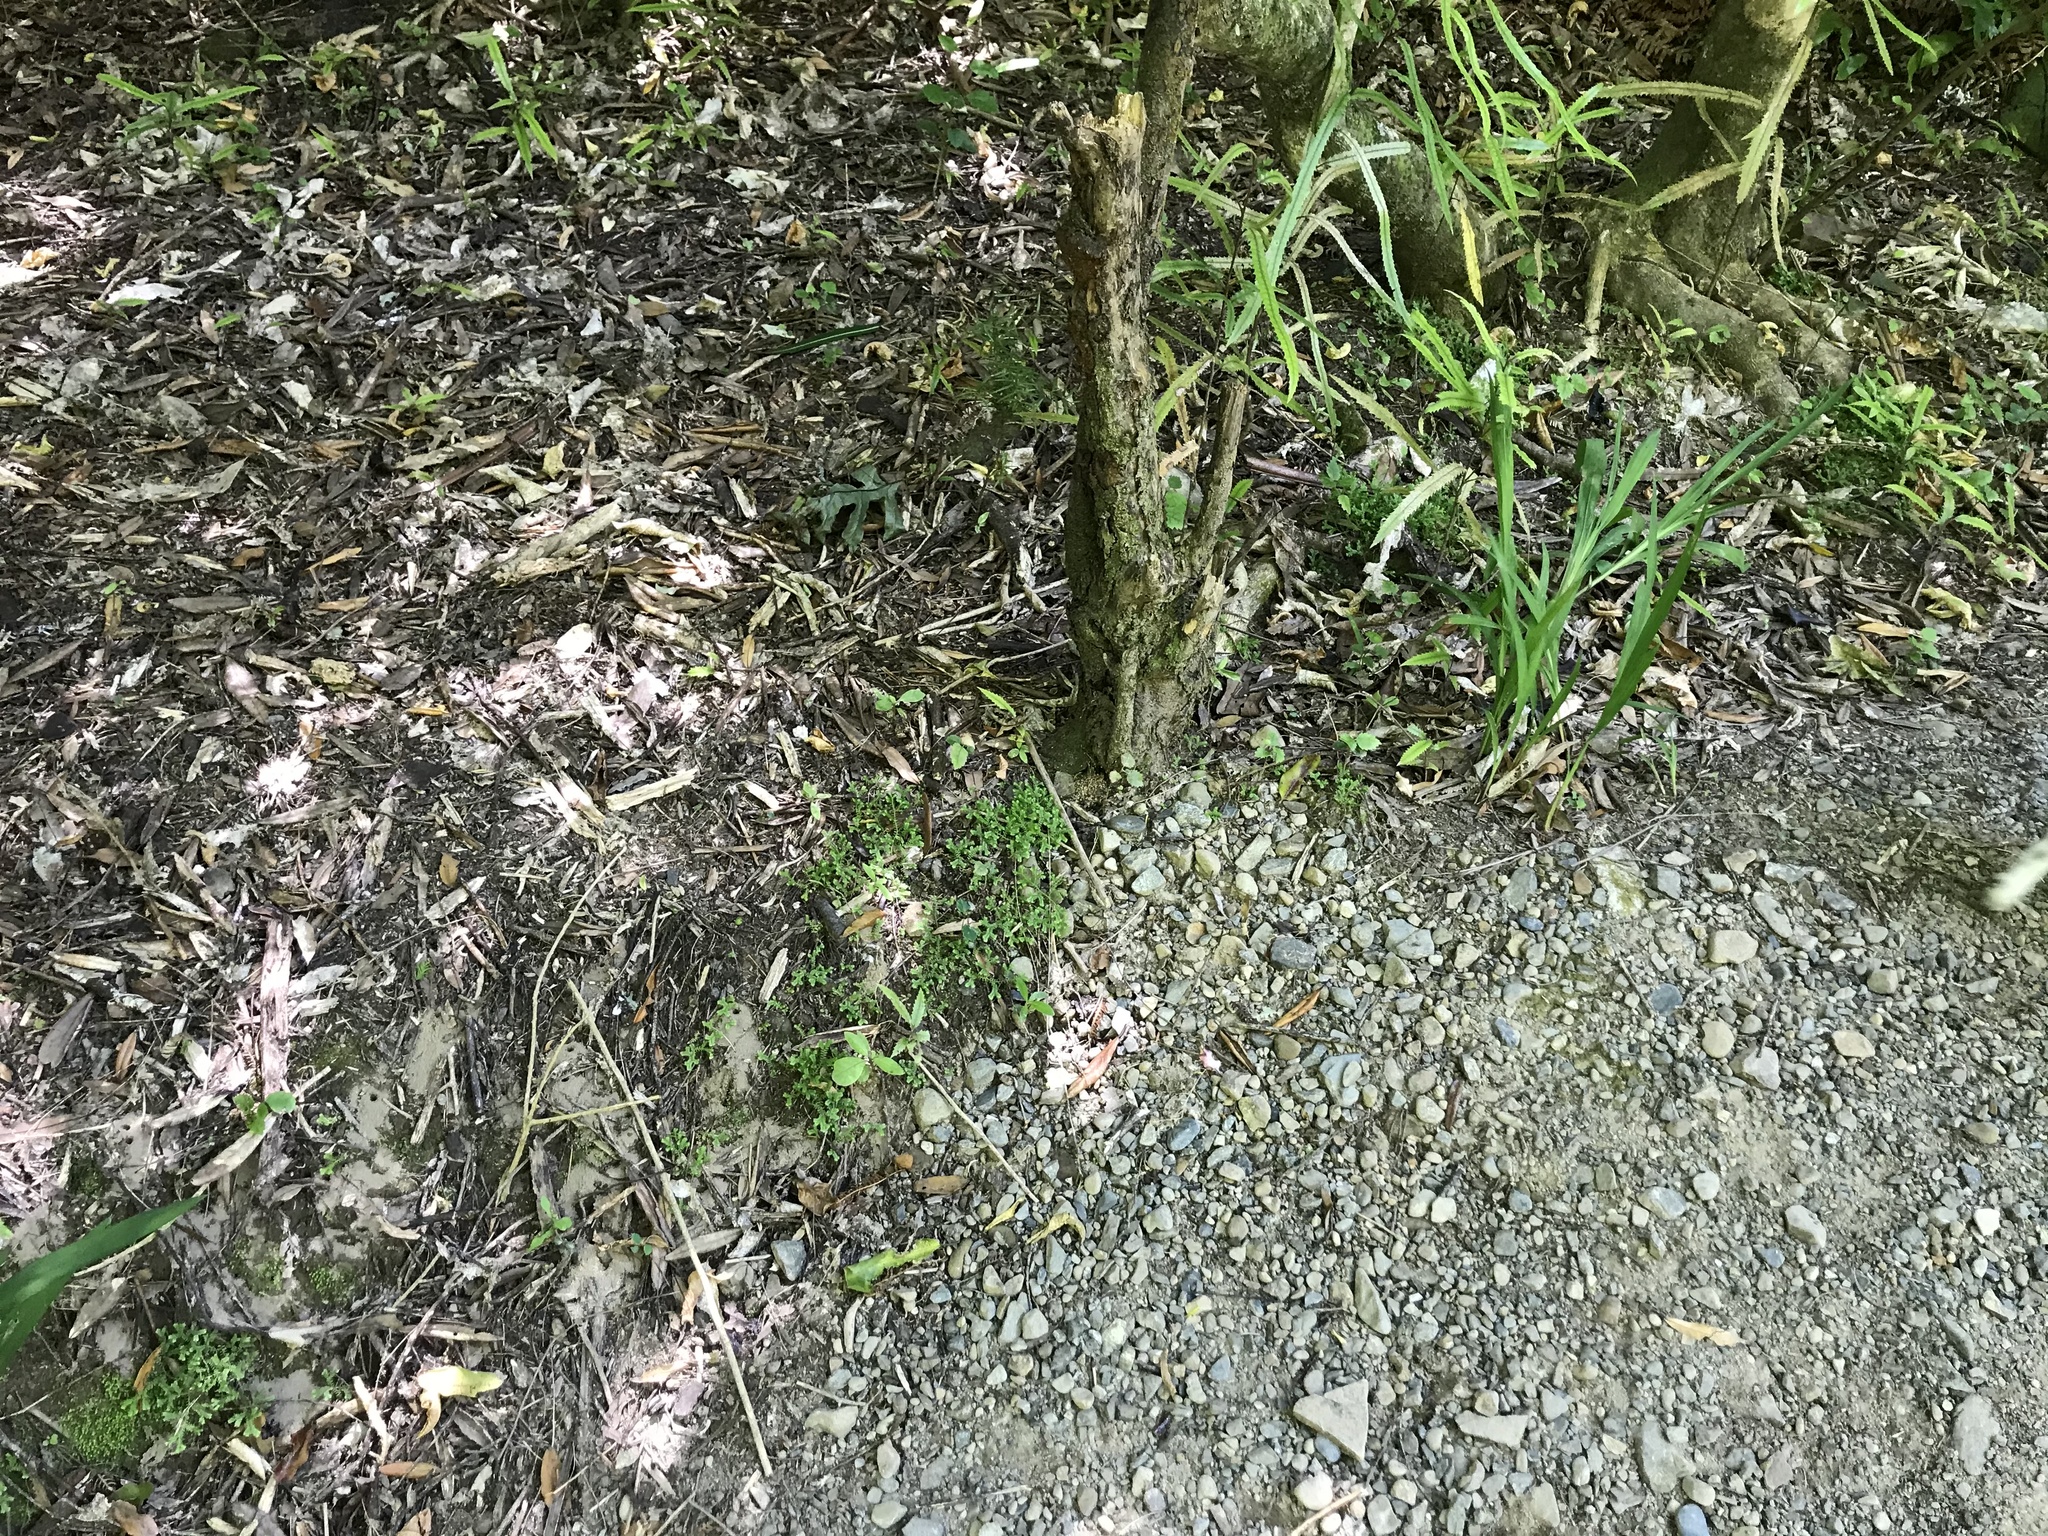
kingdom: Plantae
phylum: Tracheophyta
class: Lycopodiopsida
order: Selaginellales
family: Selaginellaceae
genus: Selaginella
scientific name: Selaginella kraussiana
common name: Krauss' spikemoss
